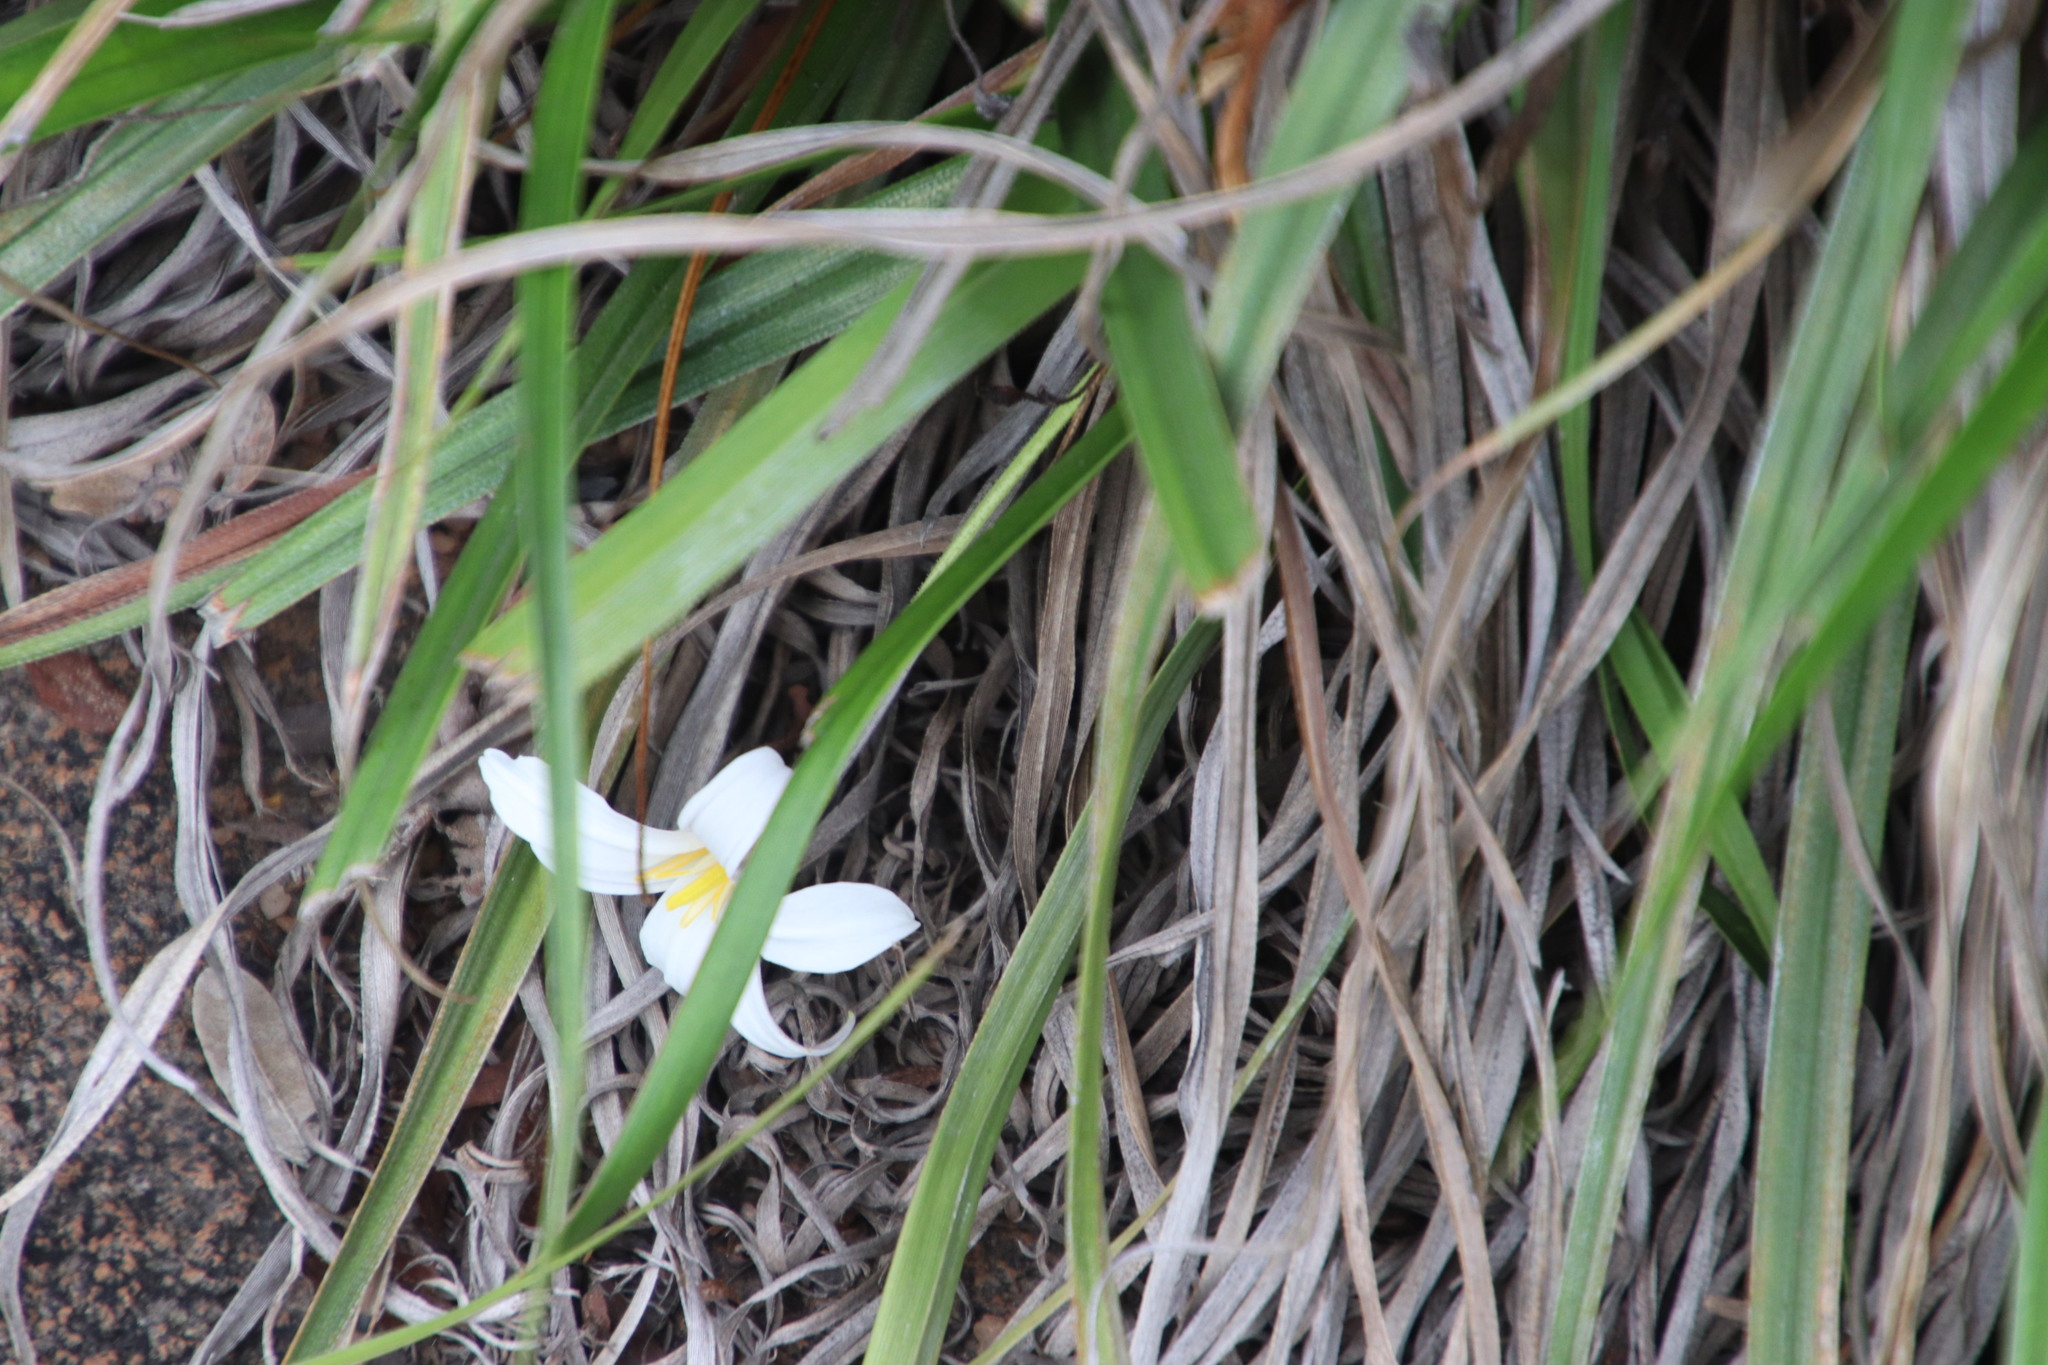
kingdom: Plantae
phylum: Tracheophyta
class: Liliopsida
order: Pandanales
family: Velloziaceae
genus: Xerophyta
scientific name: Xerophyta adendorffii
